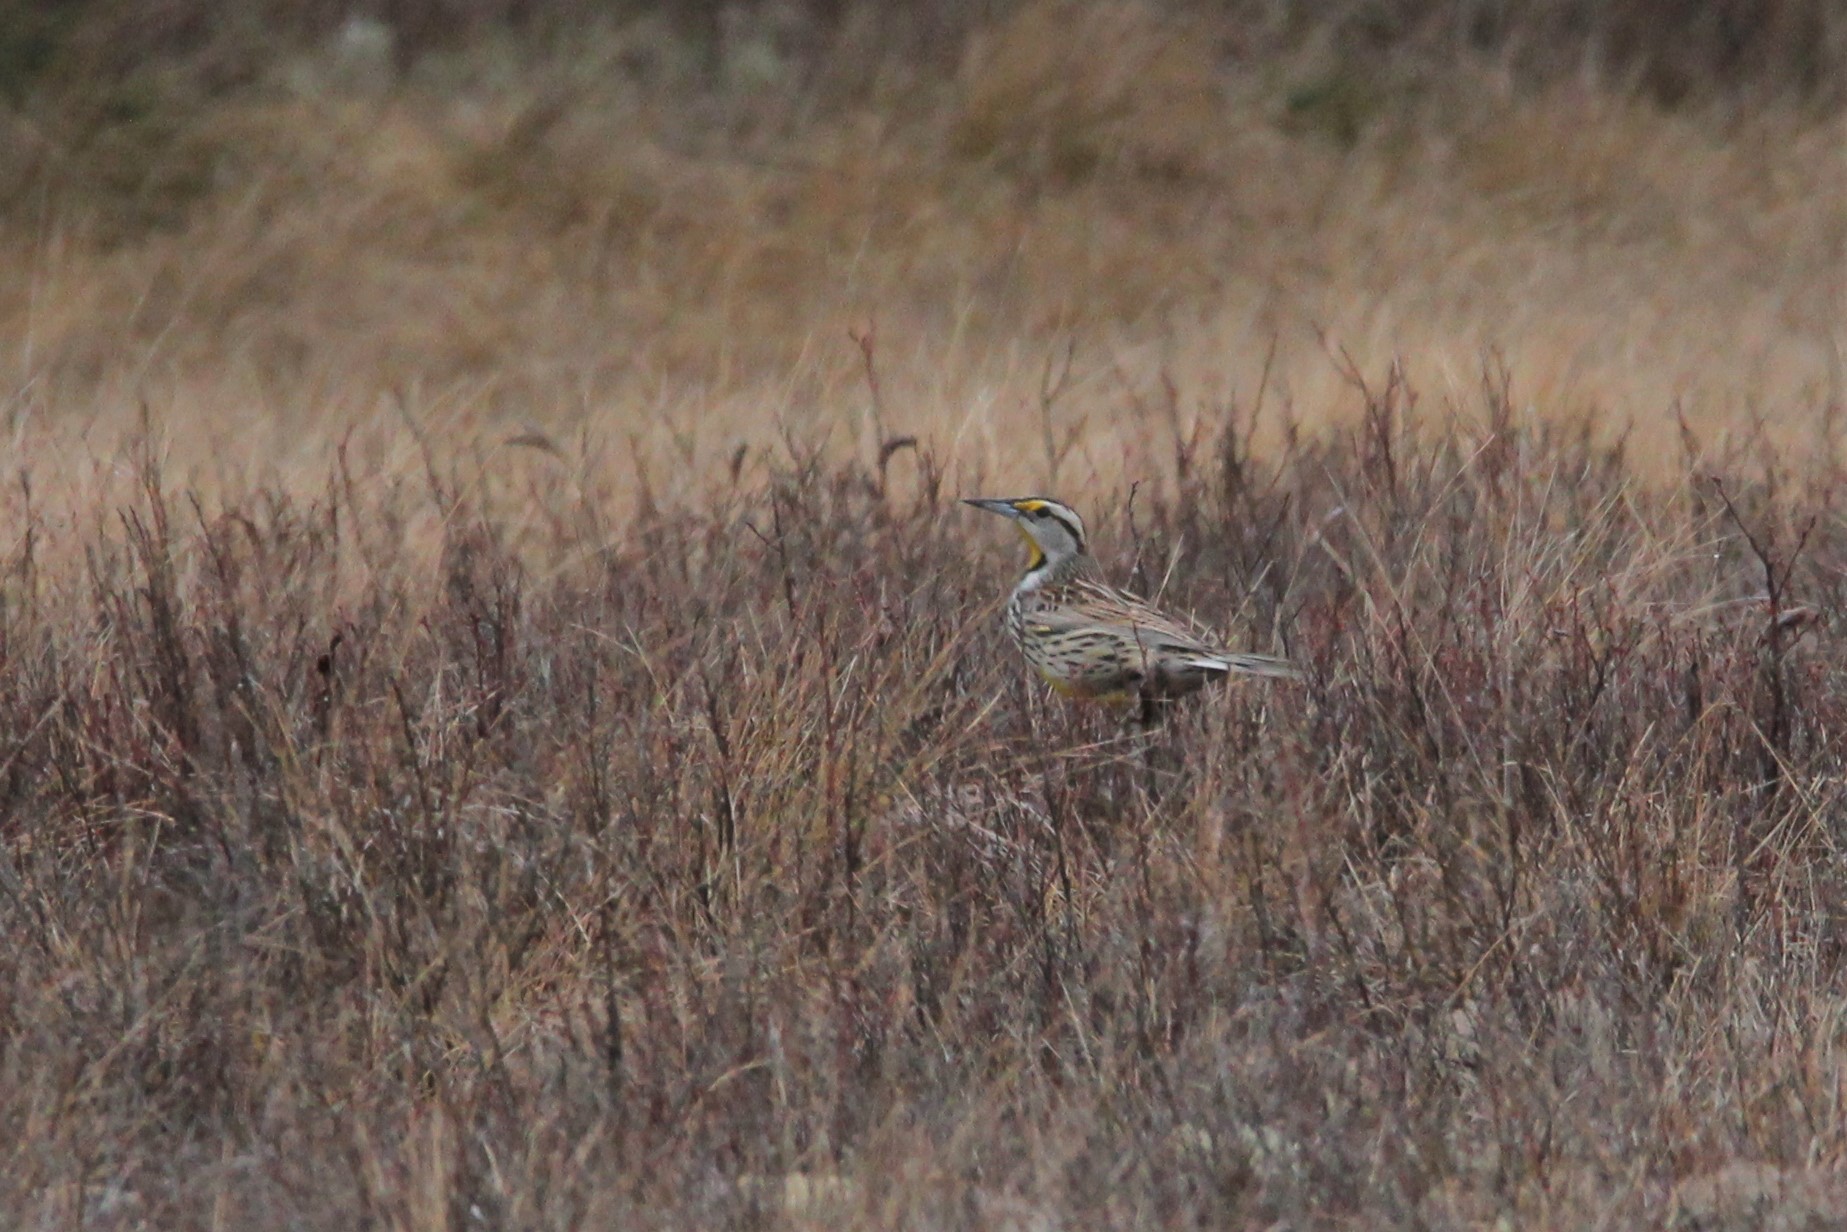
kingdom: Animalia
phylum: Chordata
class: Aves
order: Passeriformes
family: Icteridae
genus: Sturnella
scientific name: Sturnella magna
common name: Eastern meadowlark
